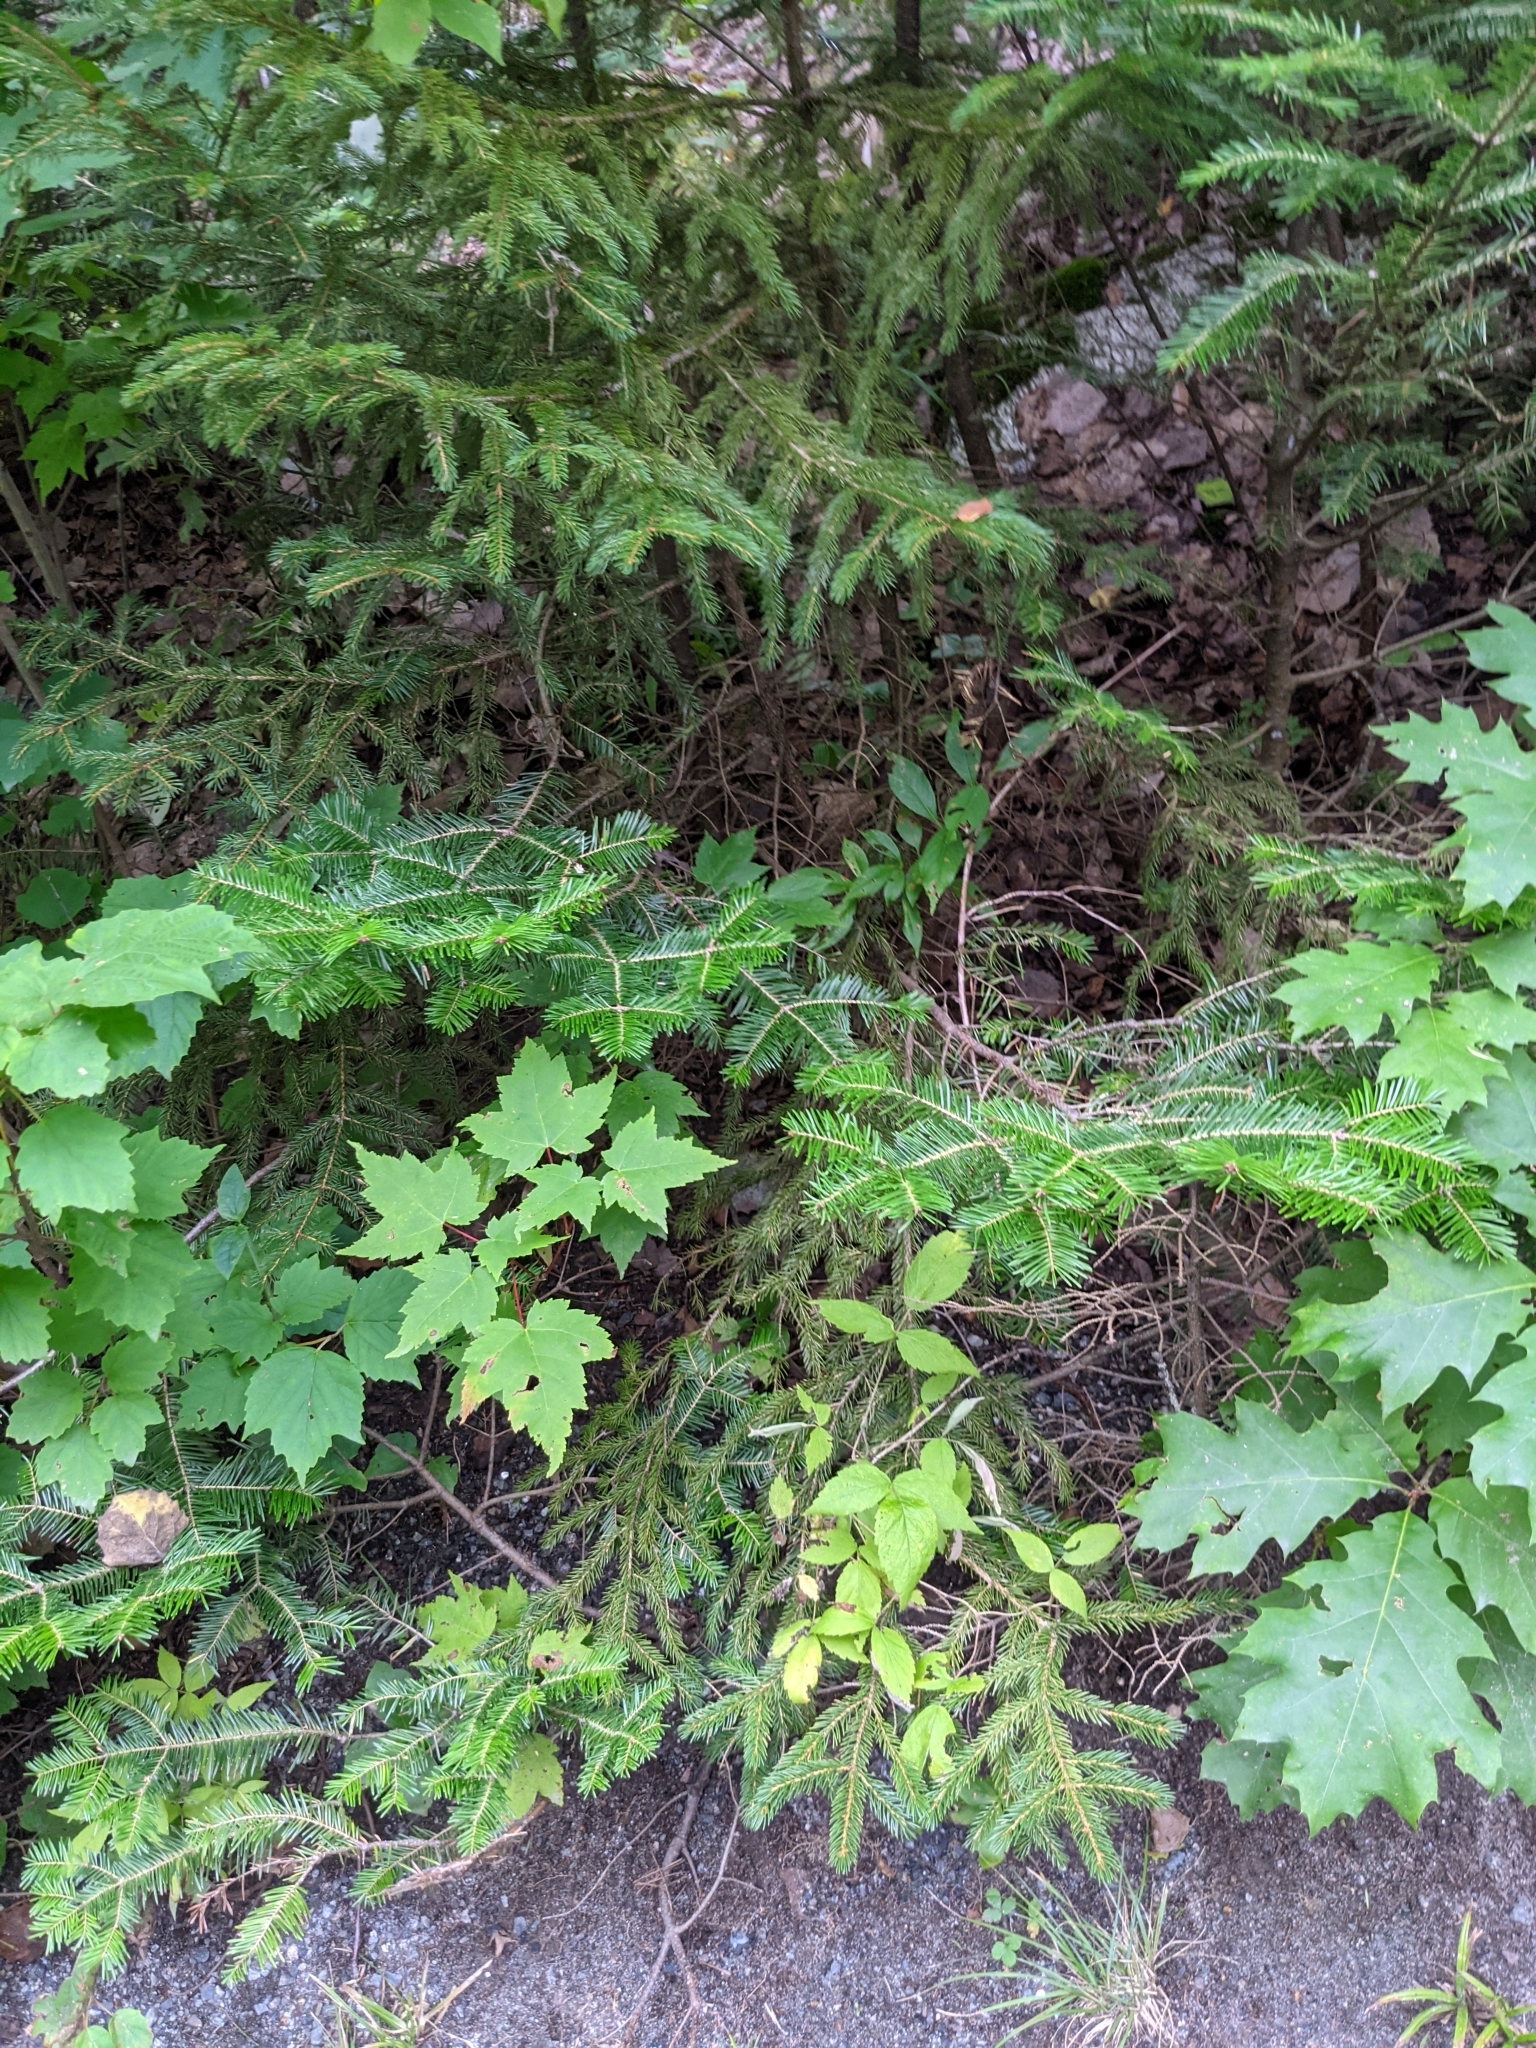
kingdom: Plantae
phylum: Tracheophyta
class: Pinopsida
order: Pinales
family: Pinaceae
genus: Abies
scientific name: Abies balsamea
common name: Balsam fir
